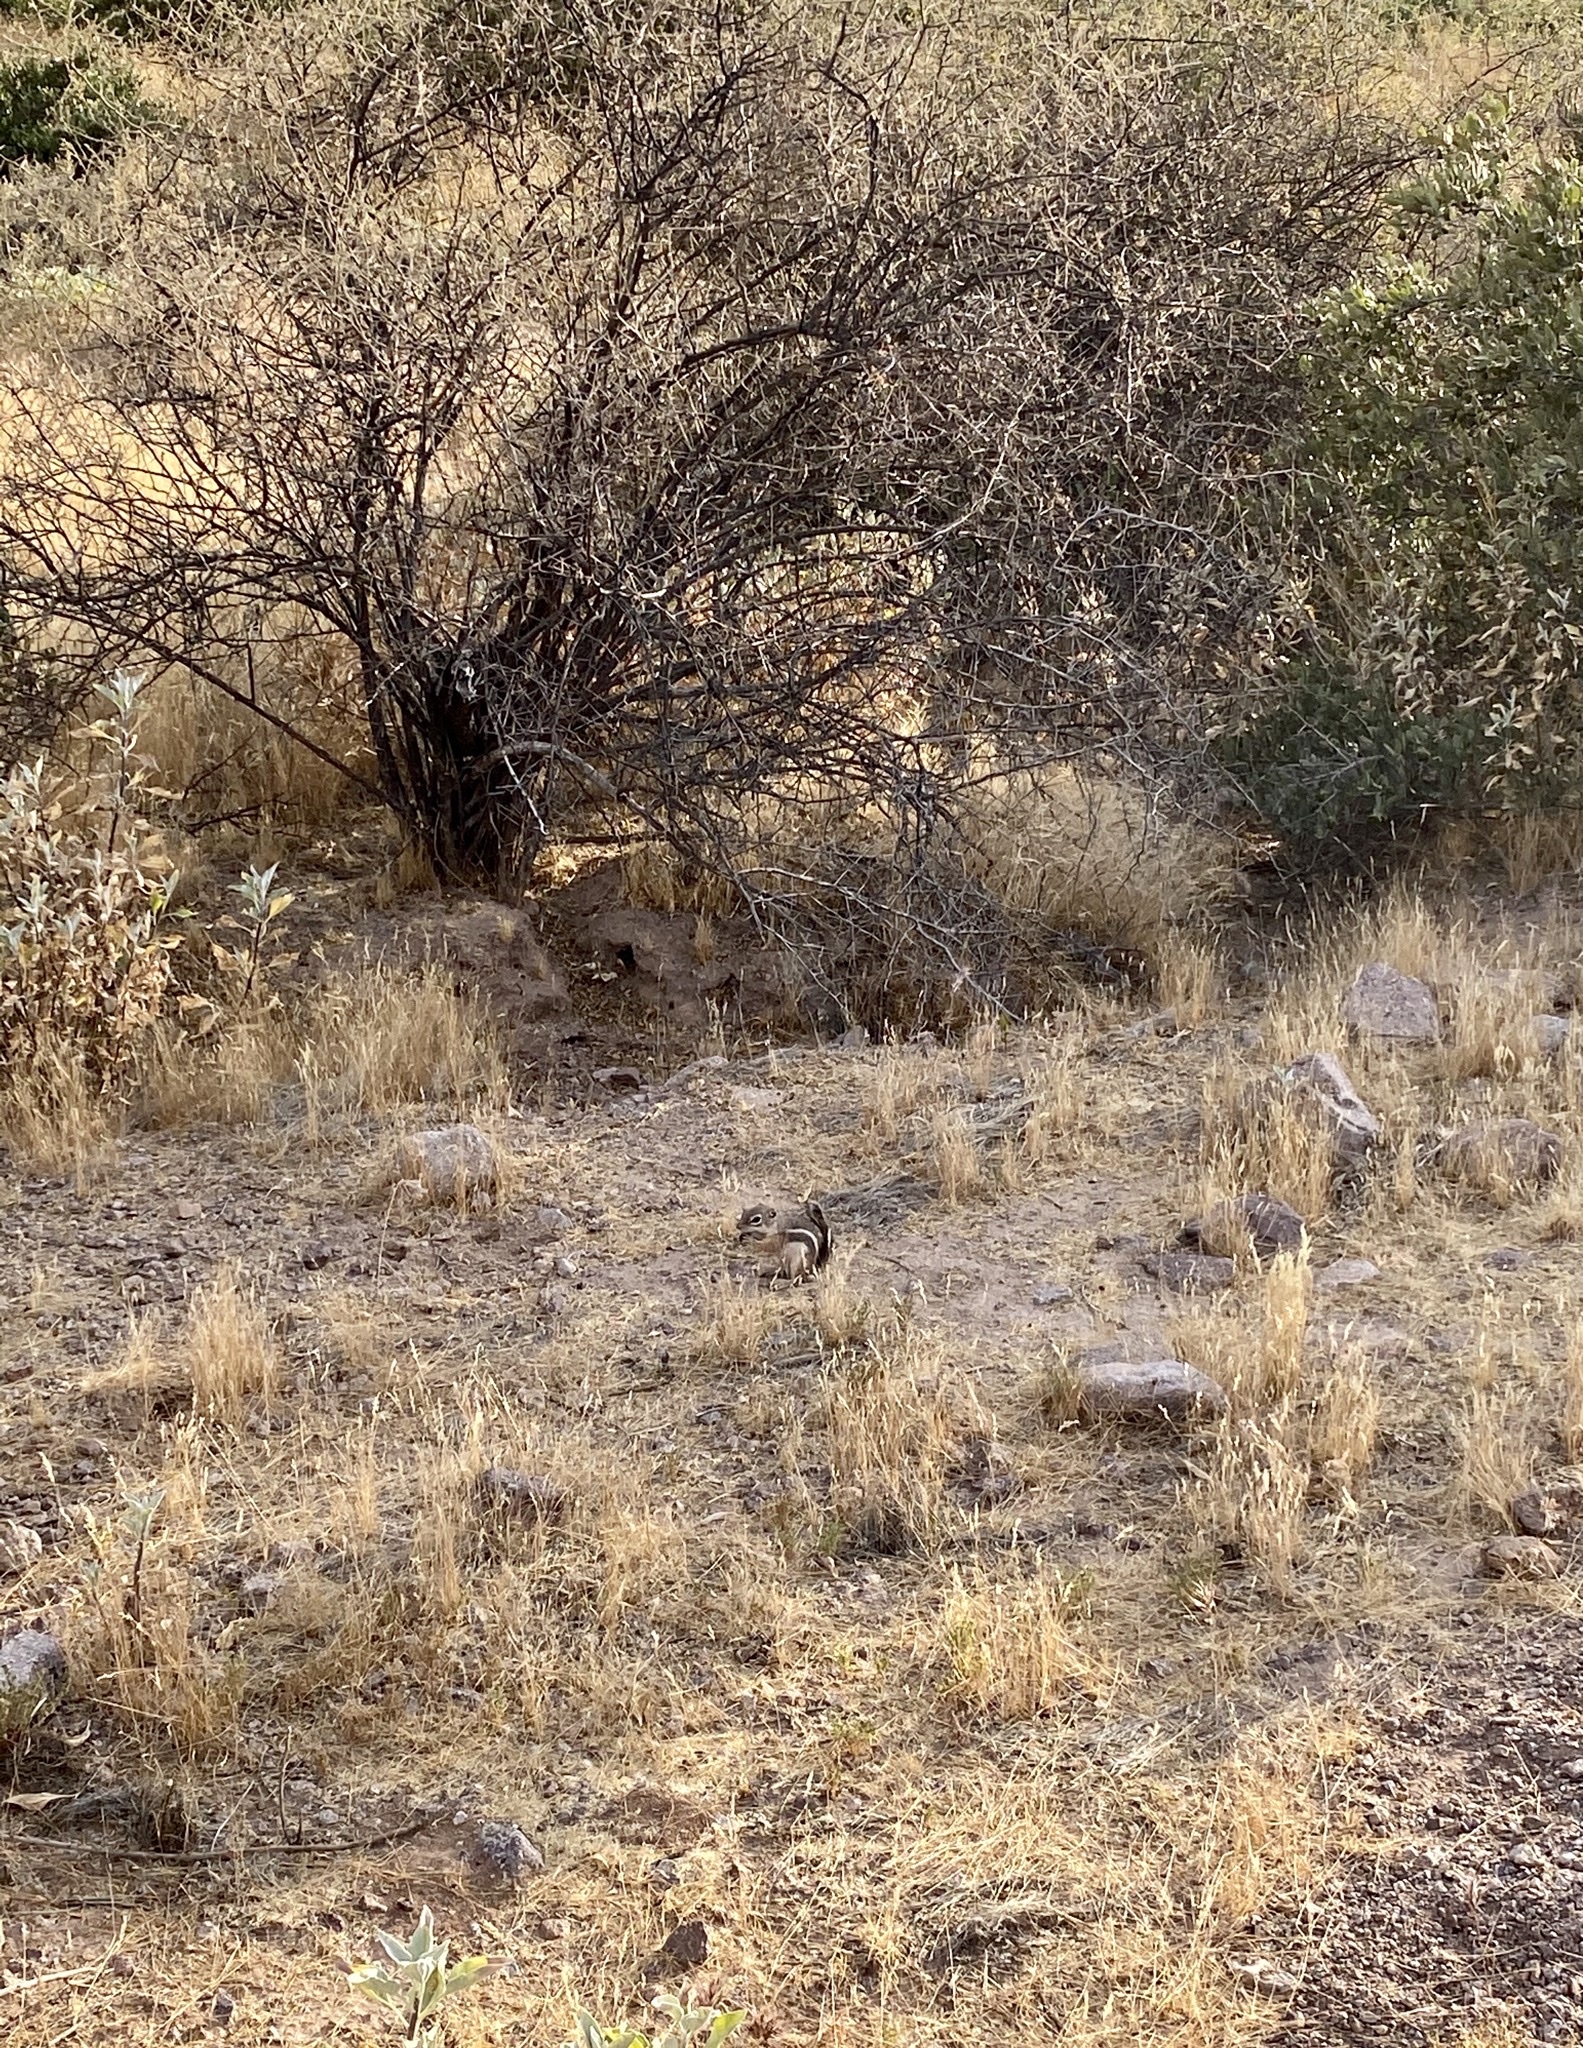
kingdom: Animalia
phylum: Chordata
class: Mammalia
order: Rodentia
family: Sciuridae
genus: Ammospermophilus
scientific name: Ammospermophilus harrisii
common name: Harris's antelope squirrel
